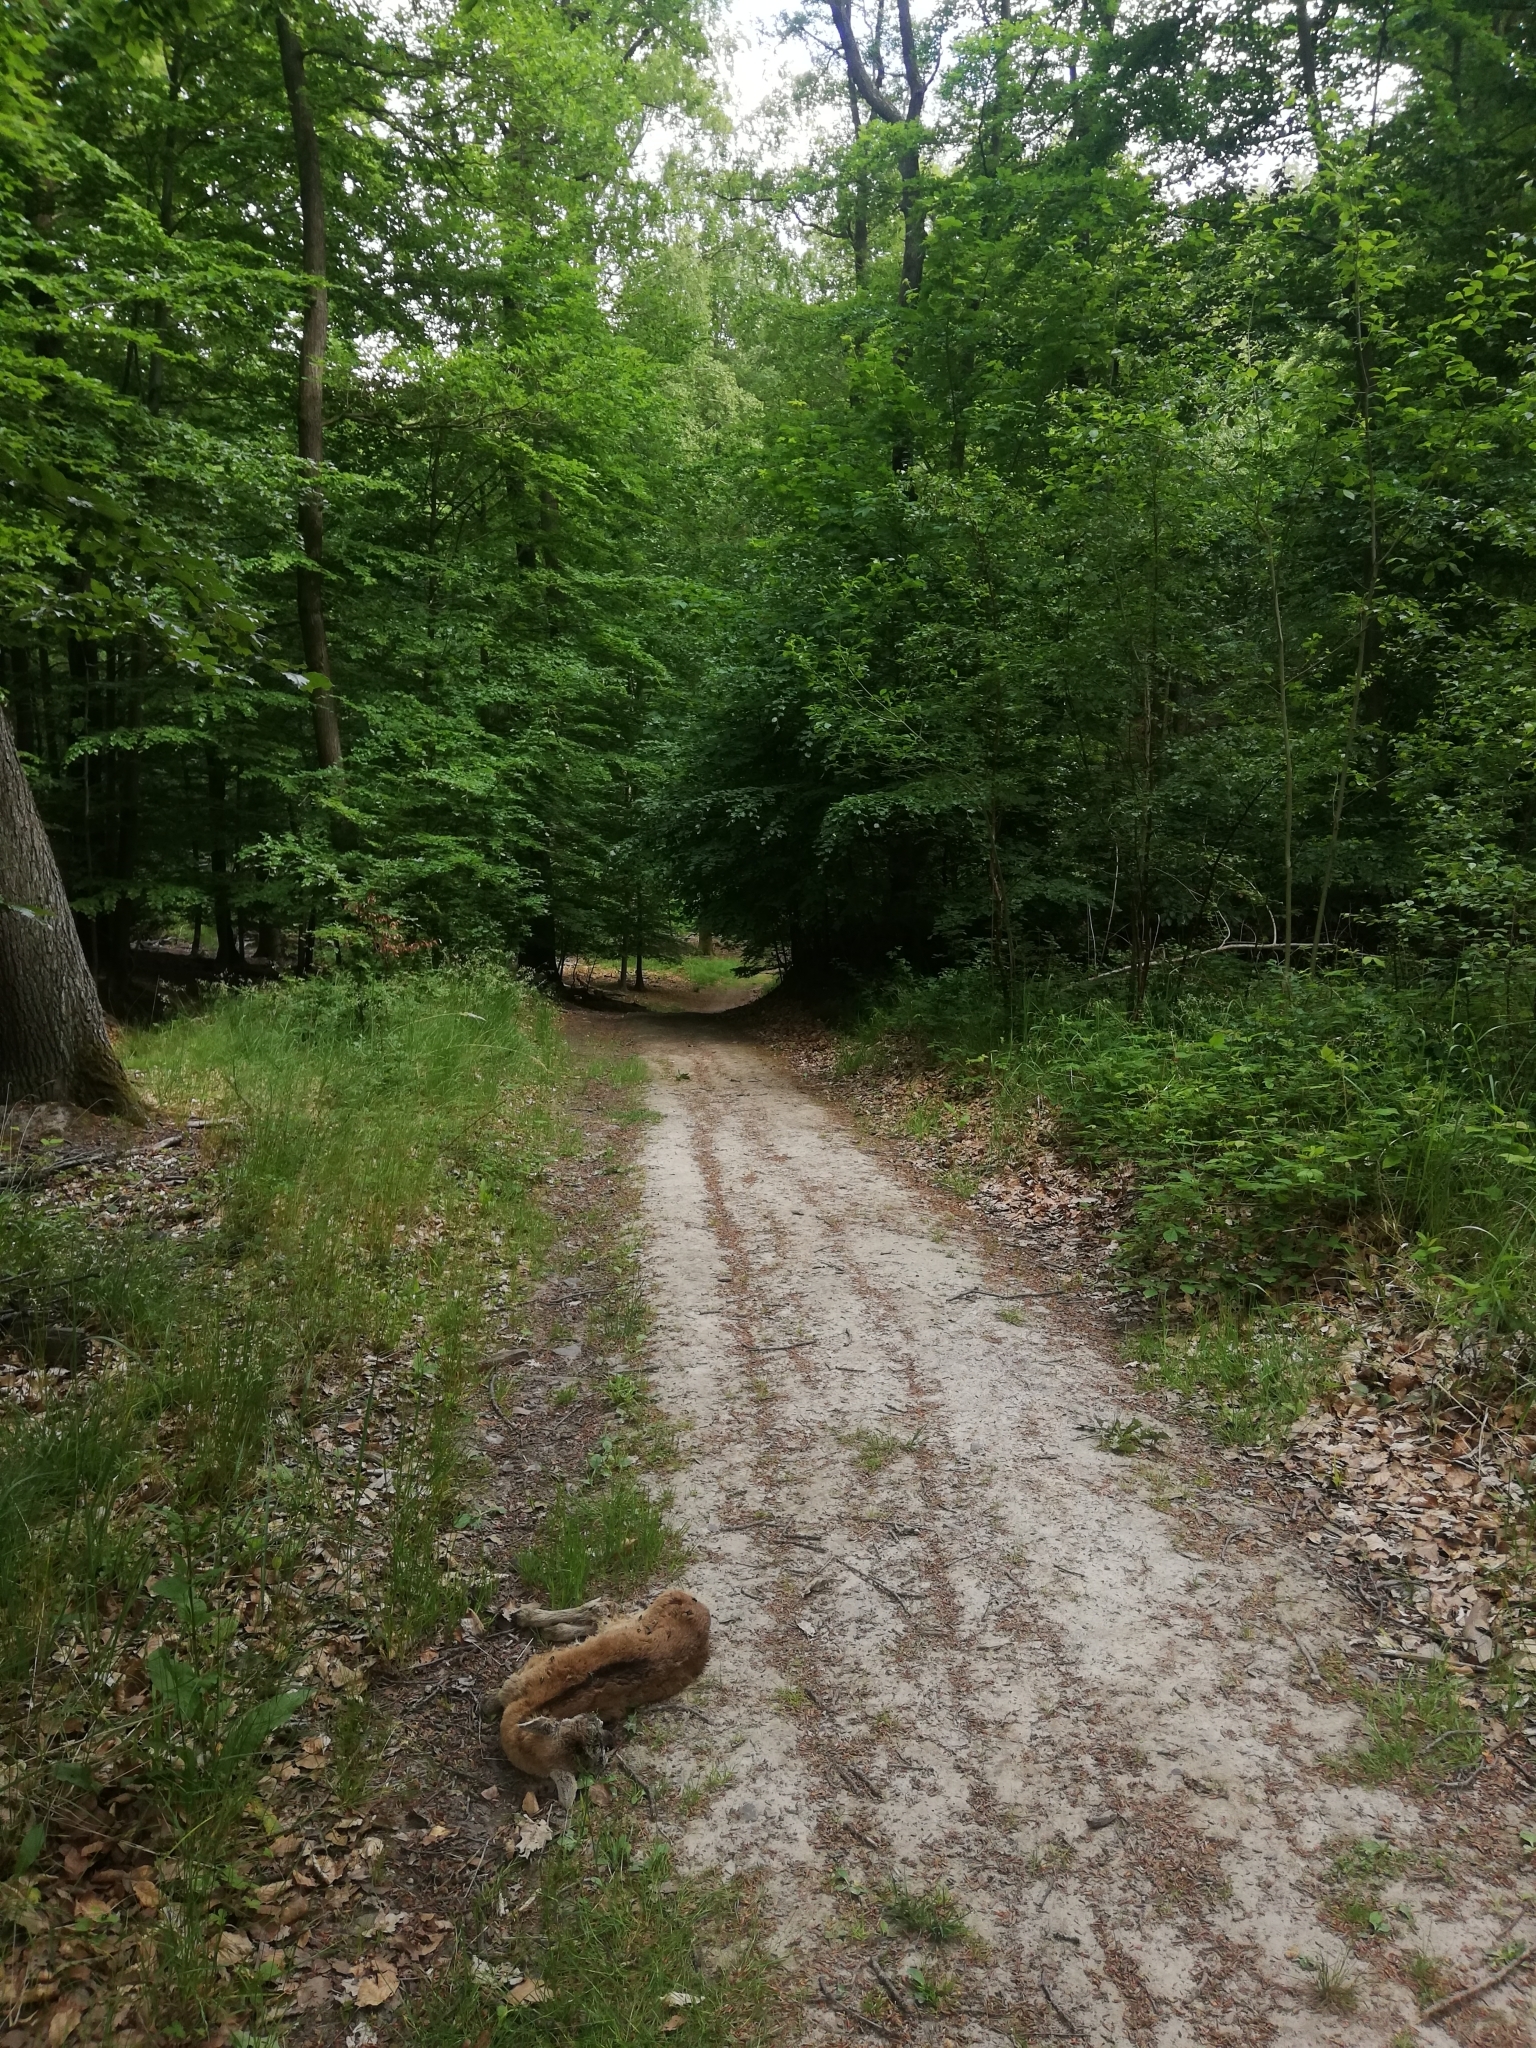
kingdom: Animalia
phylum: Chordata
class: Mammalia
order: Artiodactyla
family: Bovidae
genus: Ovis
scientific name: Ovis aries
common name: Domestic sheep
